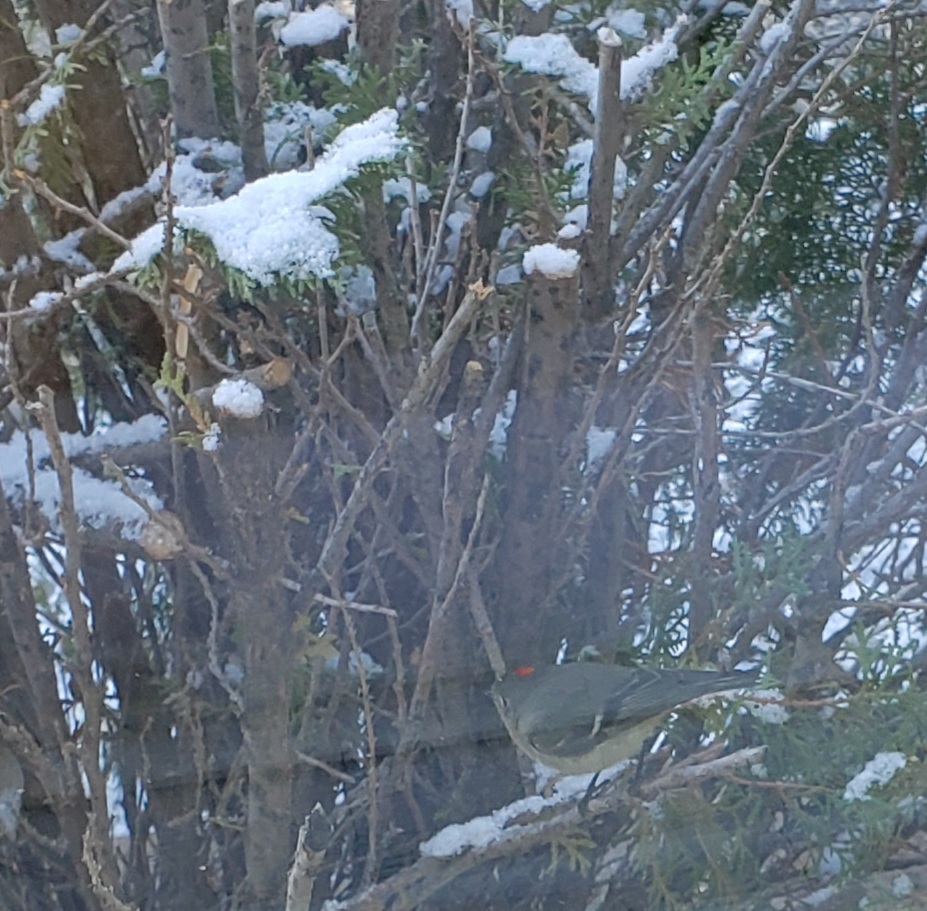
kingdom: Animalia
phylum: Chordata
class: Aves
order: Passeriformes
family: Regulidae
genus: Regulus
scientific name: Regulus calendula
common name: Ruby-crowned kinglet
